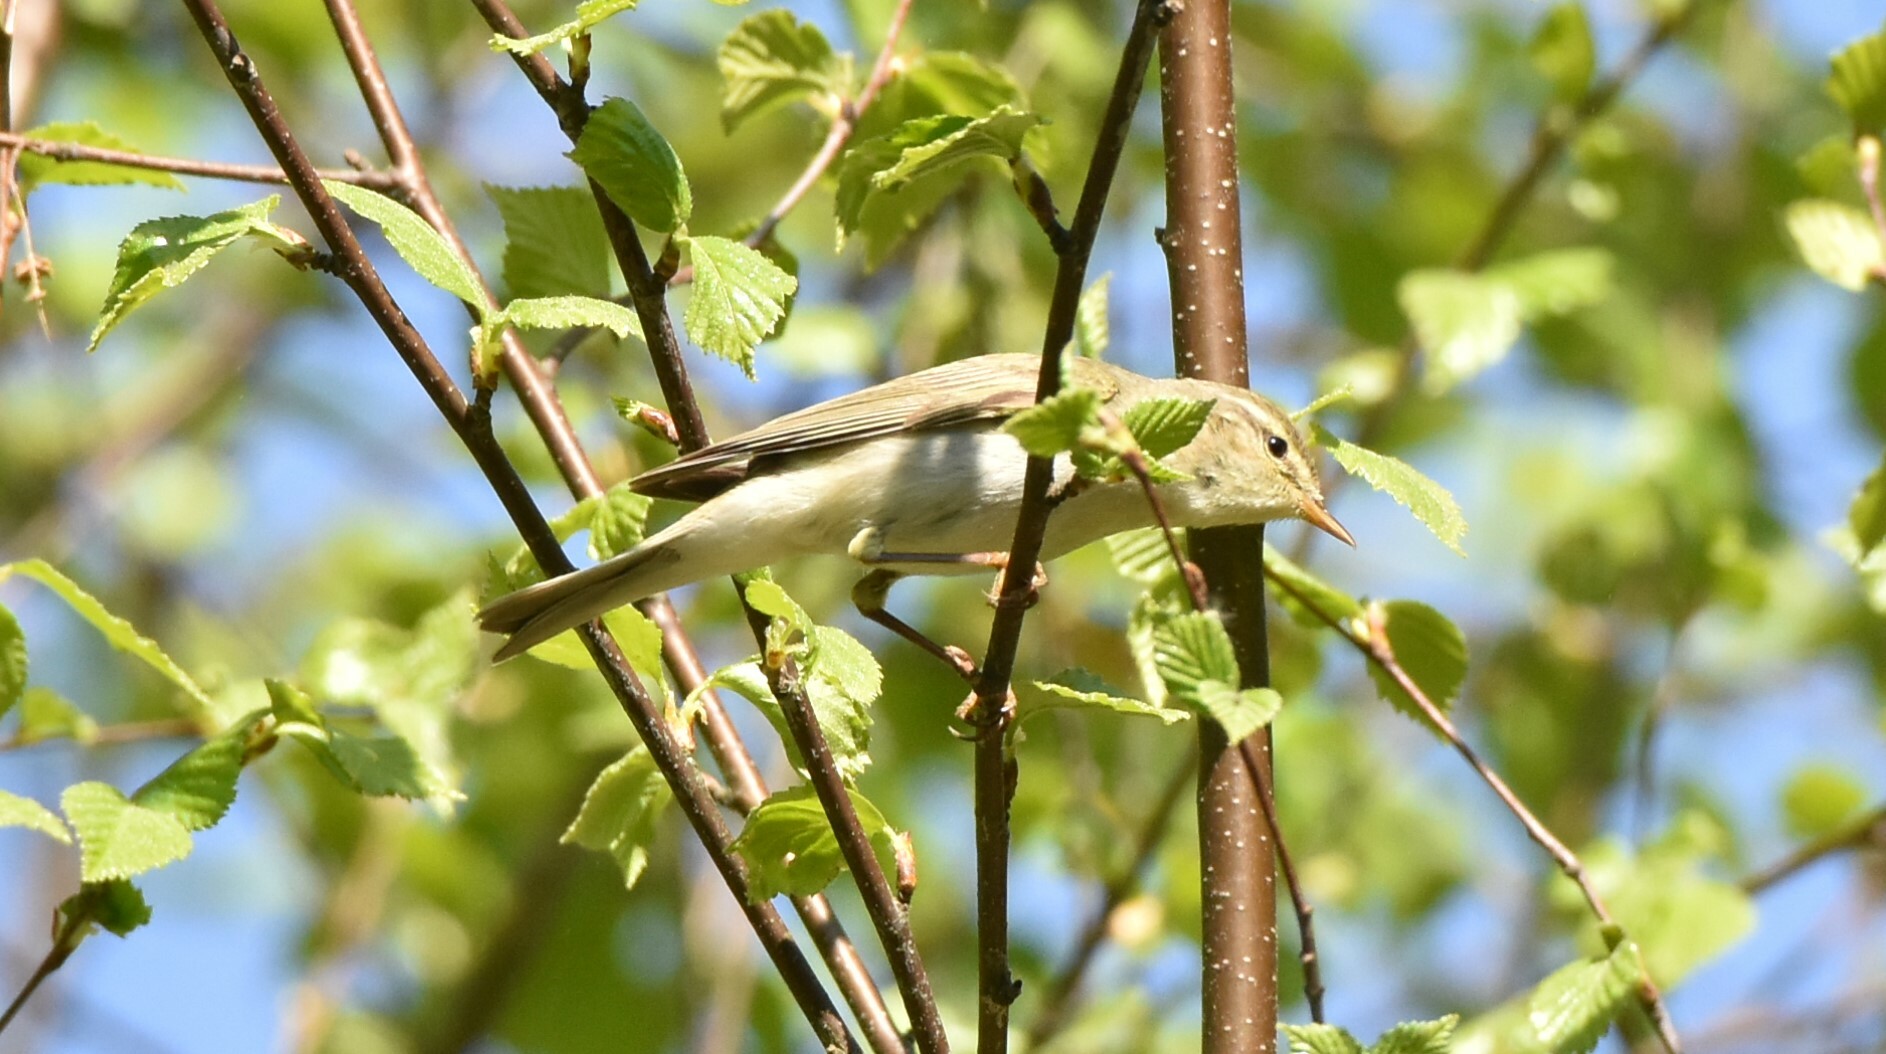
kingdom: Animalia
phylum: Chordata
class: Aves
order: Passeriformes
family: Phylloscopidae
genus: Phylloscopus
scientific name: Phylloscopus trochilus
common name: Willow warbler
